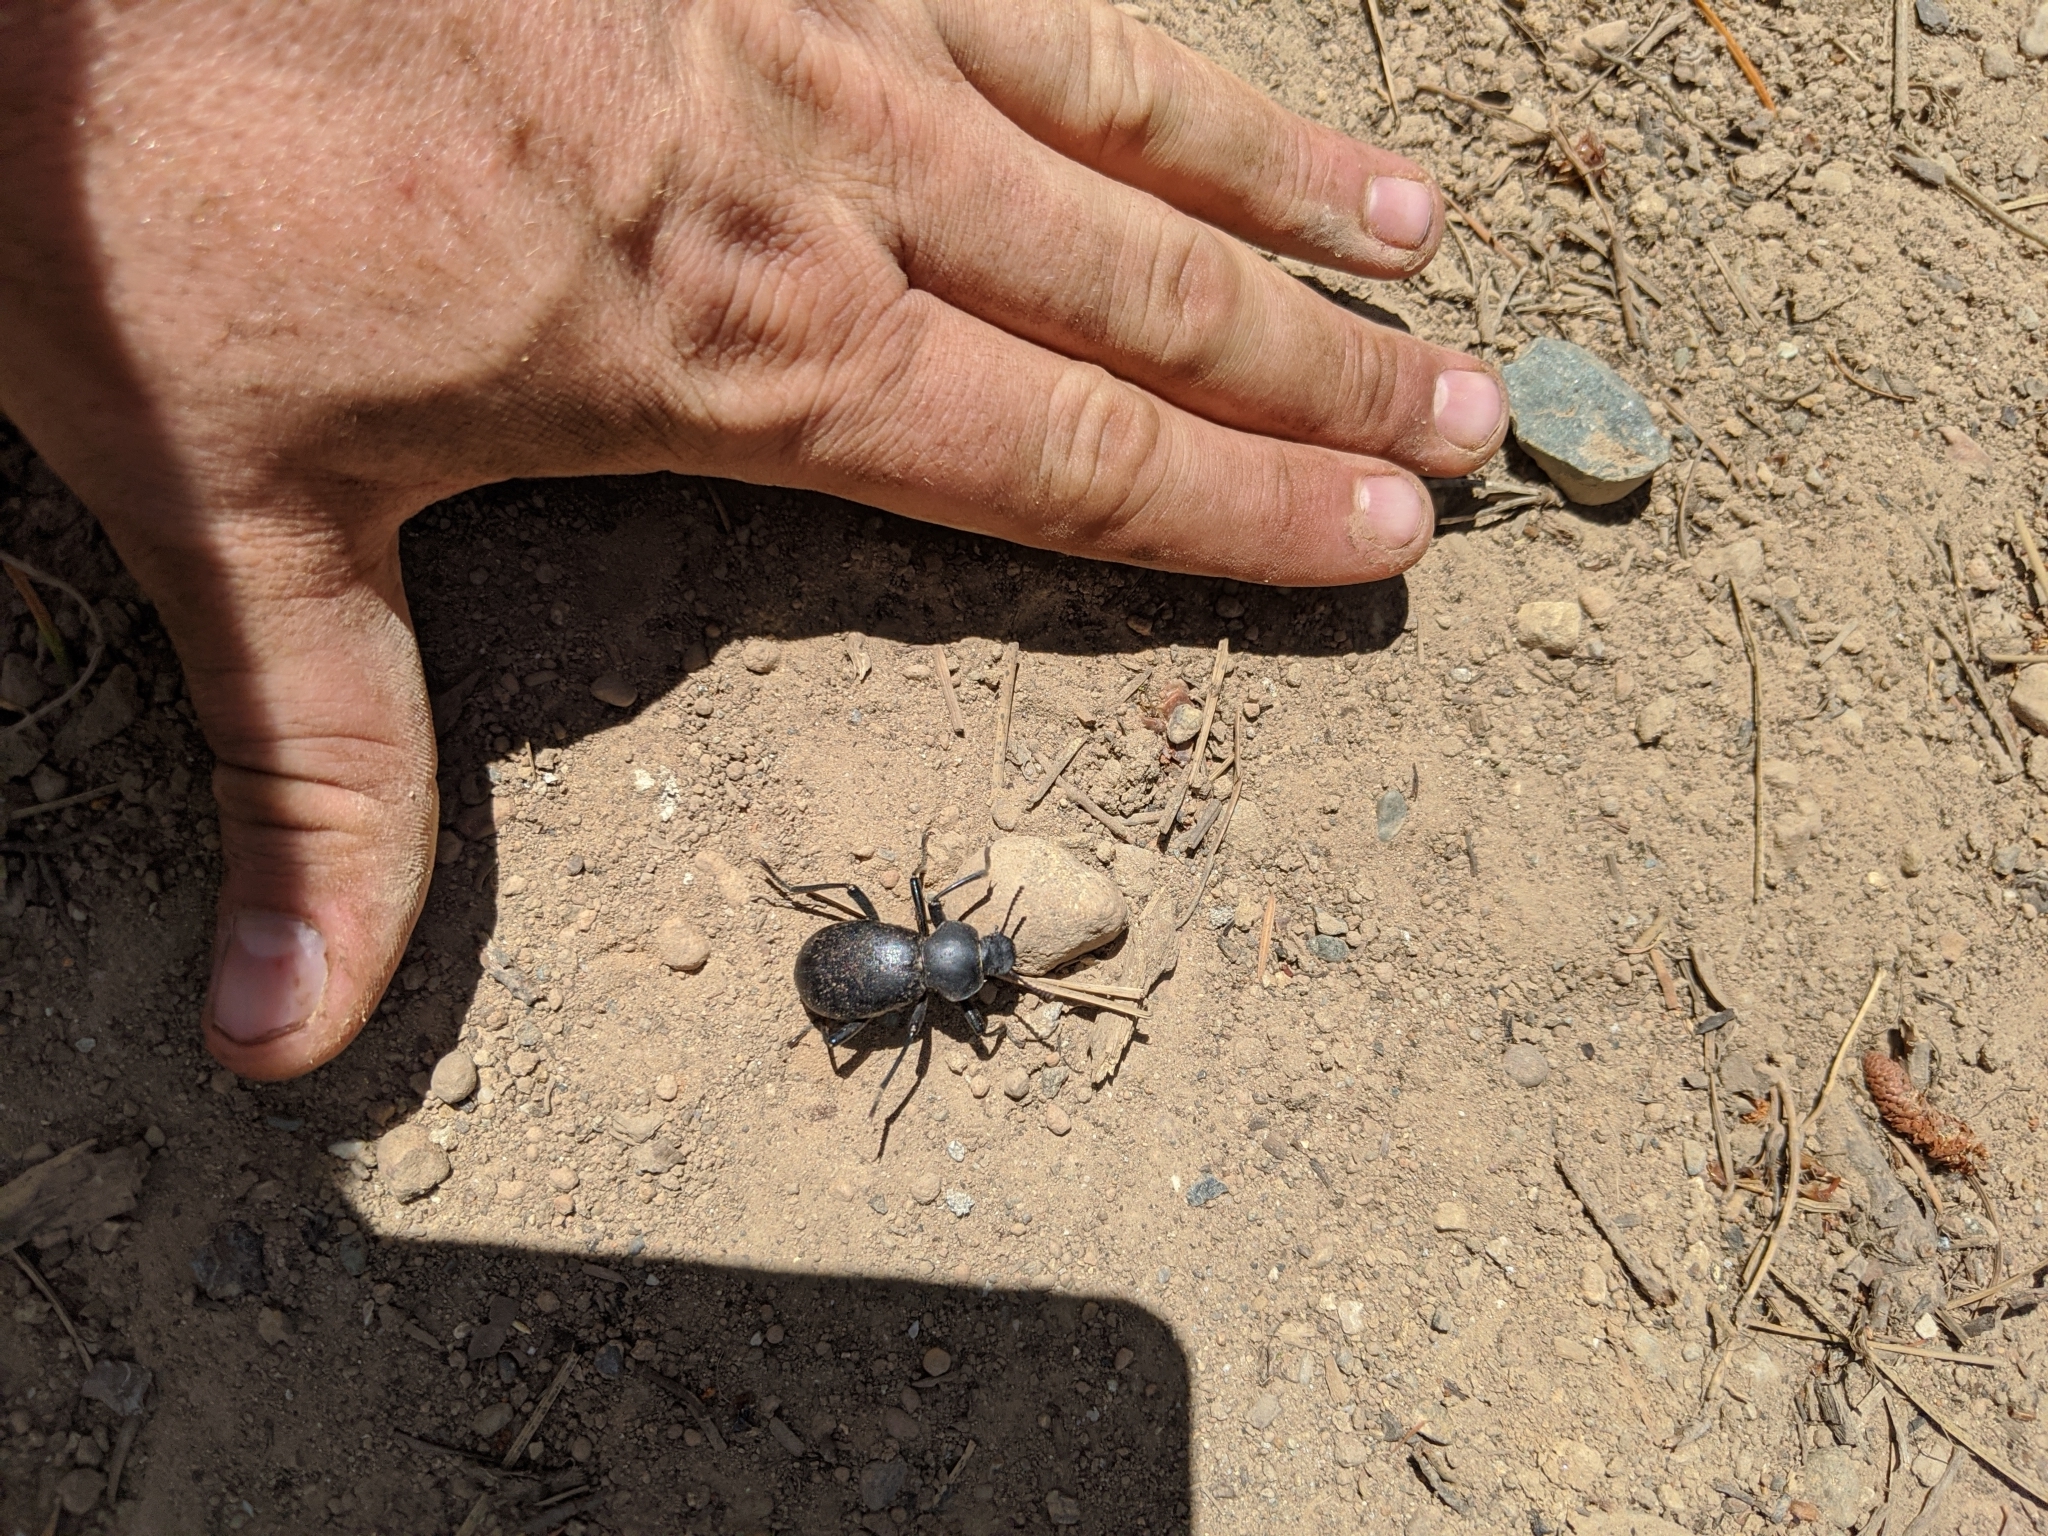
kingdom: Animalia
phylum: Arthropoda
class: Insecta
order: Coleoptera
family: Tenebrionidae
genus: Coelocnemis
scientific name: Coelocnemis dilaticollis
